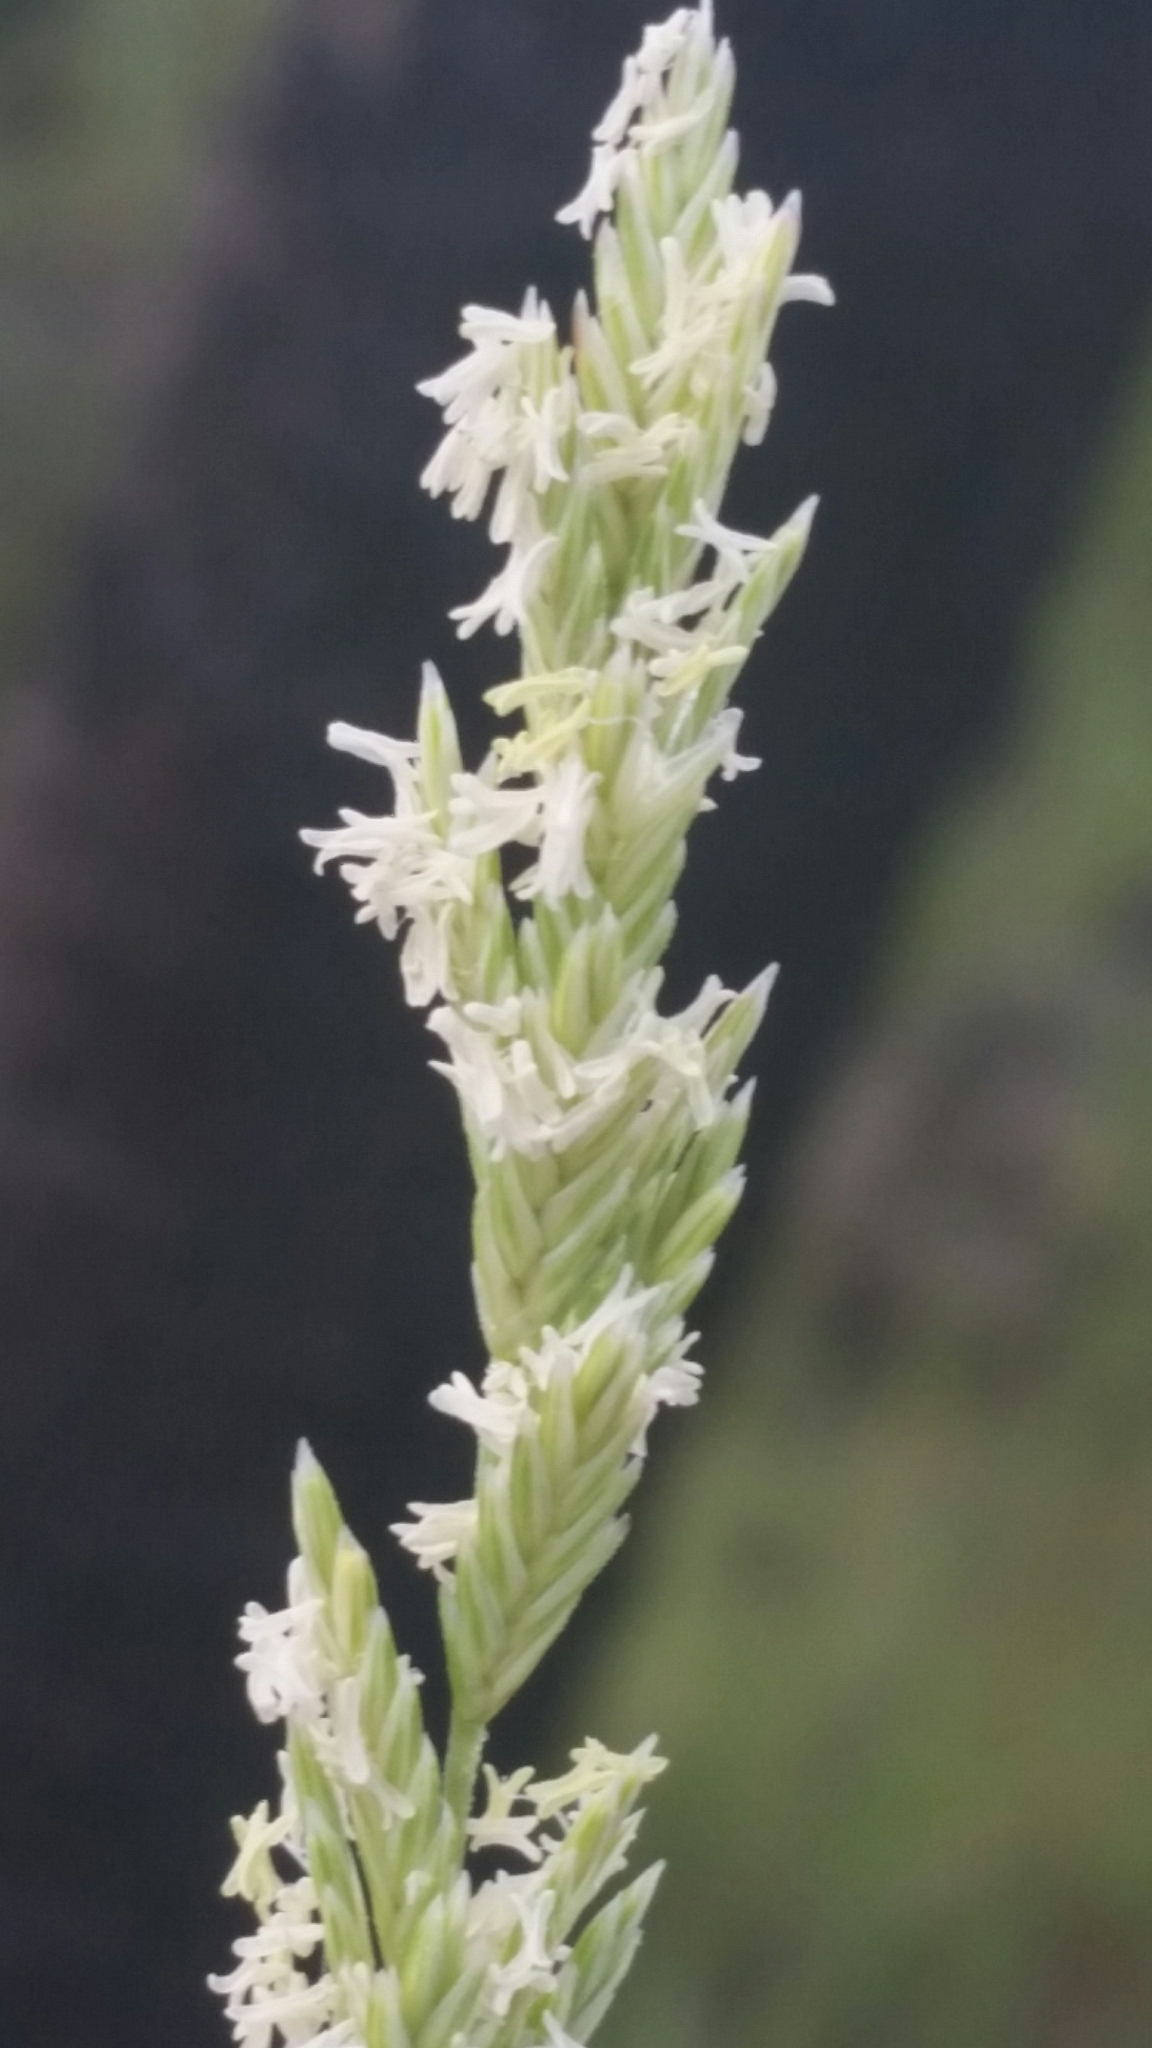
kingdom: Plantae
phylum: Tracheophyta
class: Liliopsida
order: Poales
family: Poaceae
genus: Distichlis
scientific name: Distichlis spicata
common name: Saltgrass
